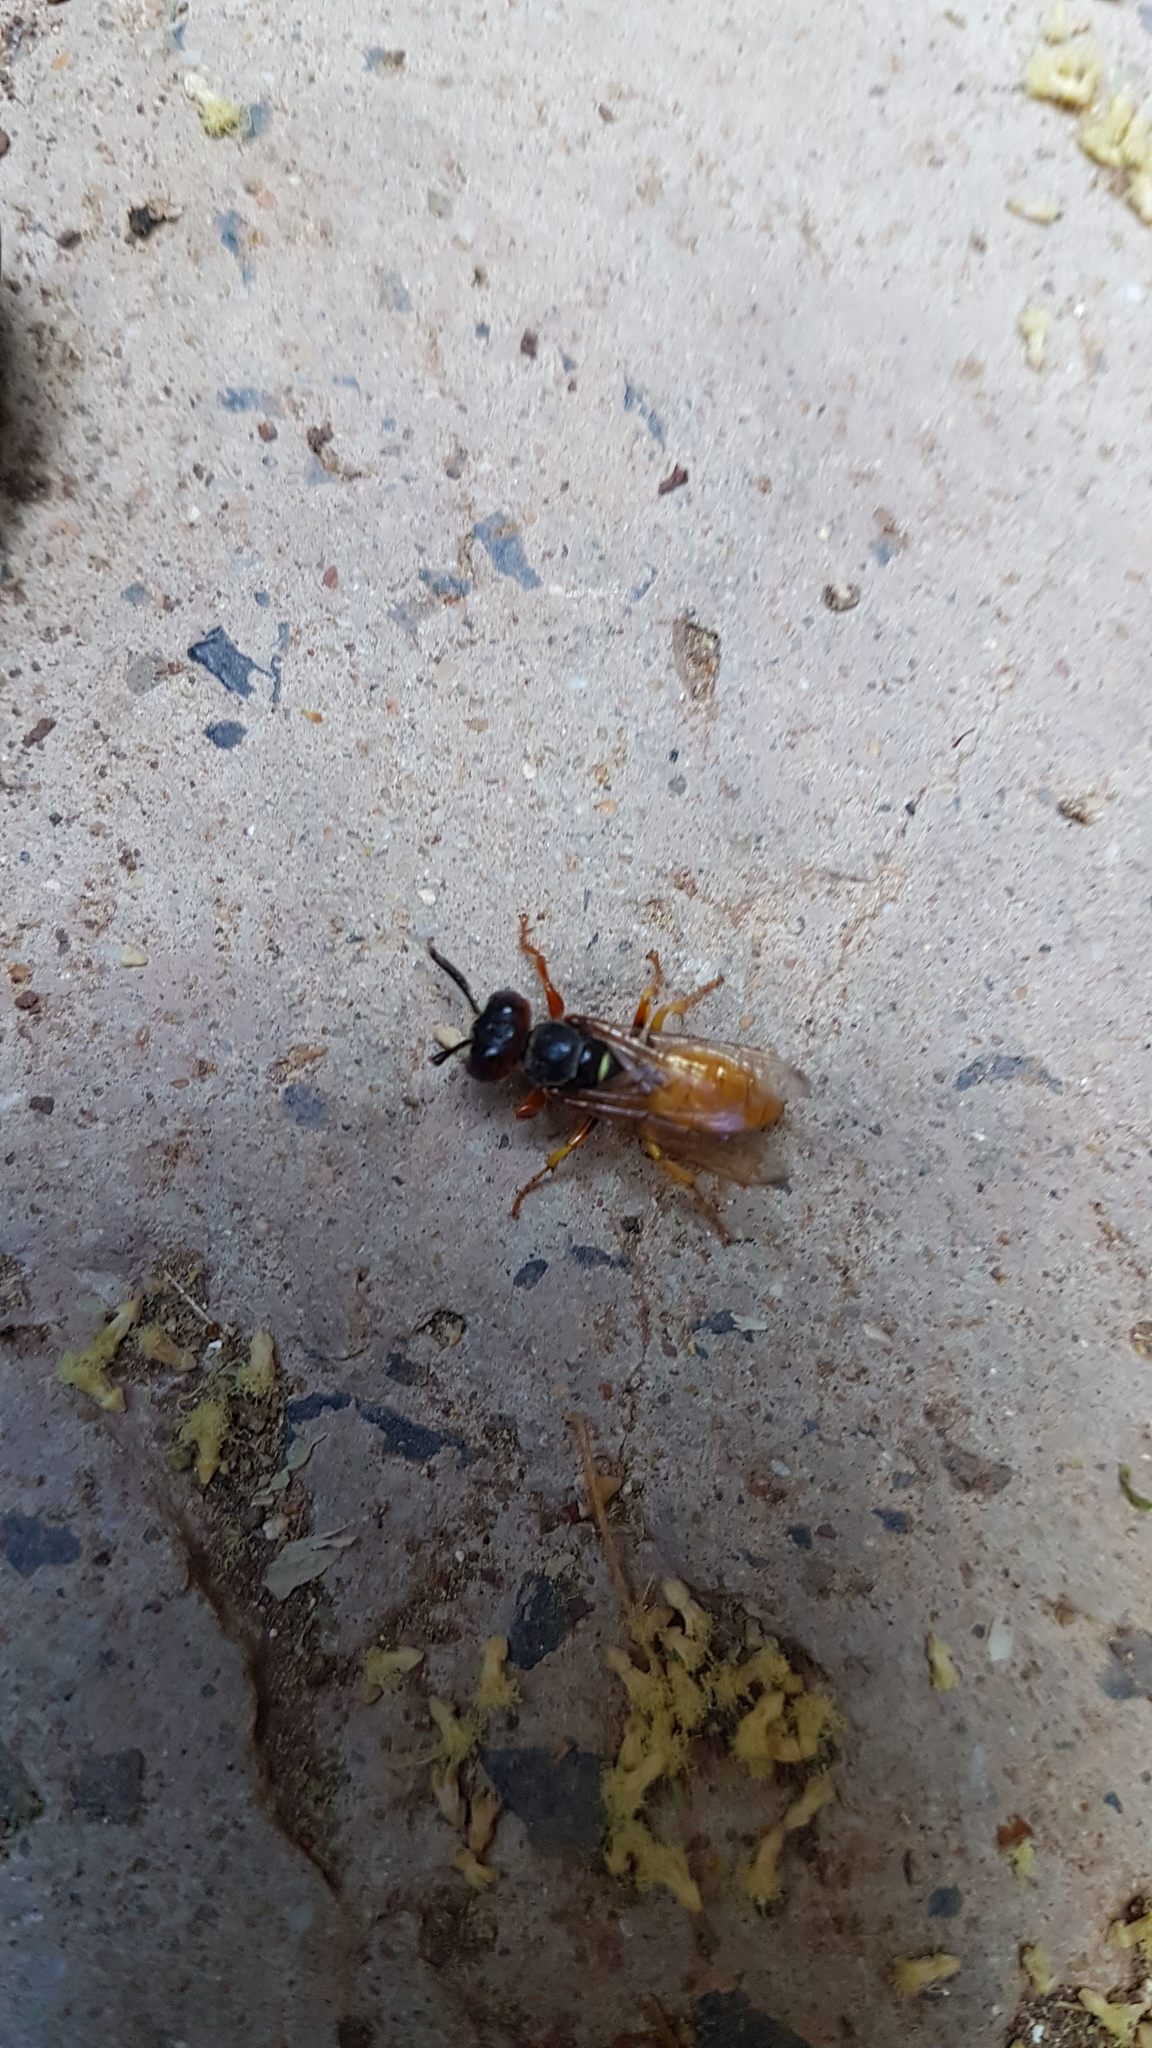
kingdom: Animalia
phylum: Arthropoda
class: Insecta
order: Hymenoptera
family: Crabronidae
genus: Philanthus
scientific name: Philanthus triangulum
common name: Bee wolf
